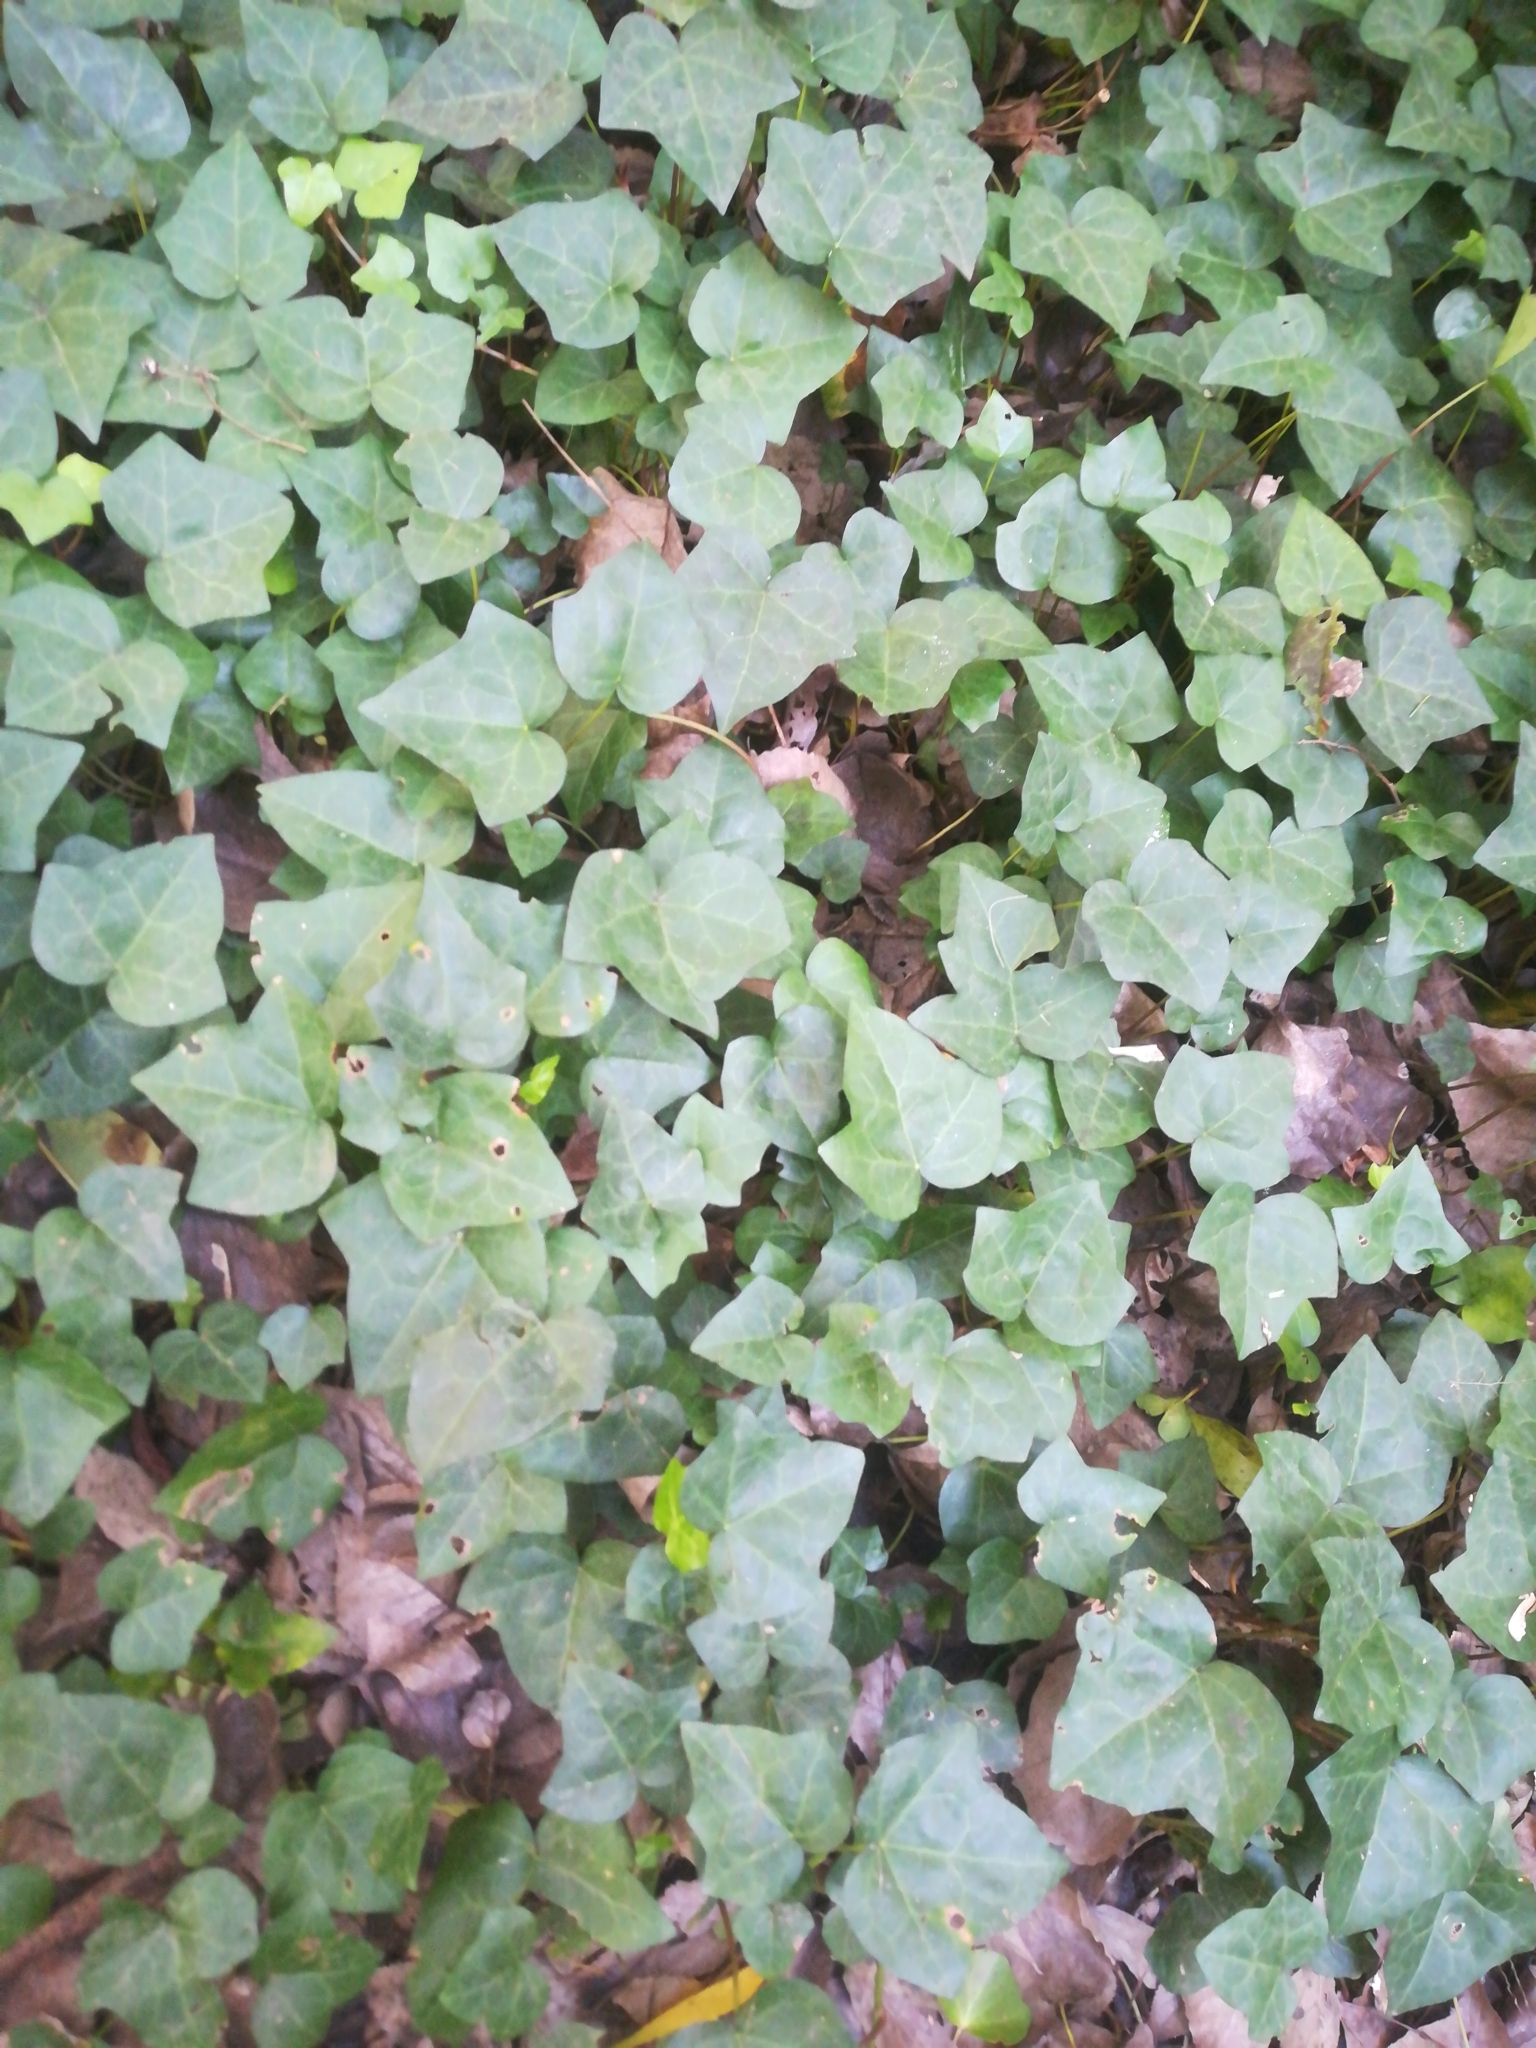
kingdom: Plantae
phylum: Tracheophyta
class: Magnoliopsida
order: Apiales
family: Araliaceae
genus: Hedera
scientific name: Hedera helix
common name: Ivy
